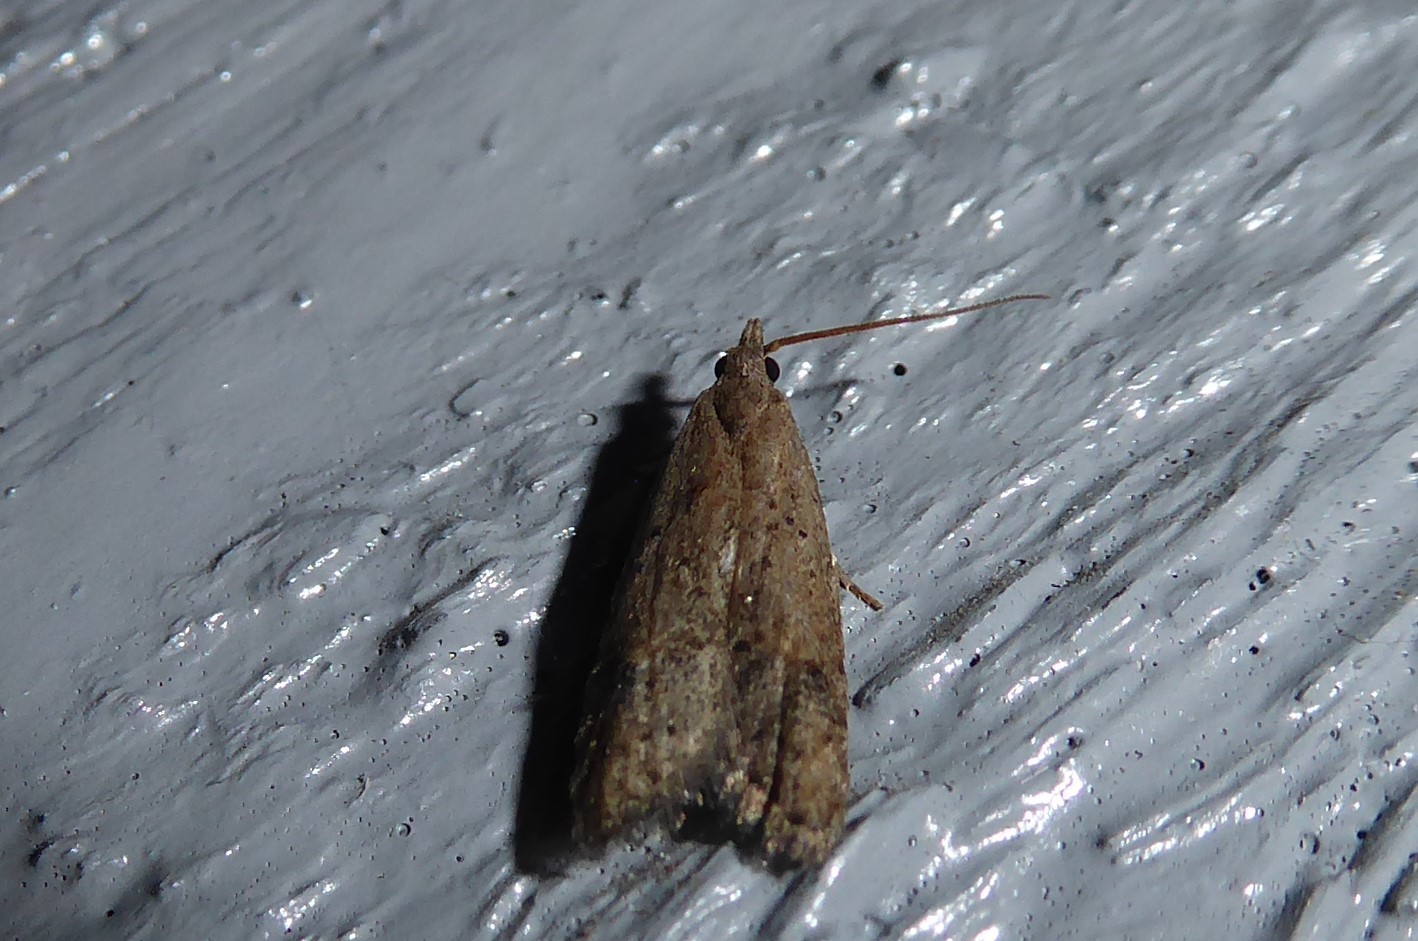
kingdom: Animalia
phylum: Arthropoda
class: Insecta
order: Lepidoptera
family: Carposinidae
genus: Carposina
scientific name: Carposina rubophaga
